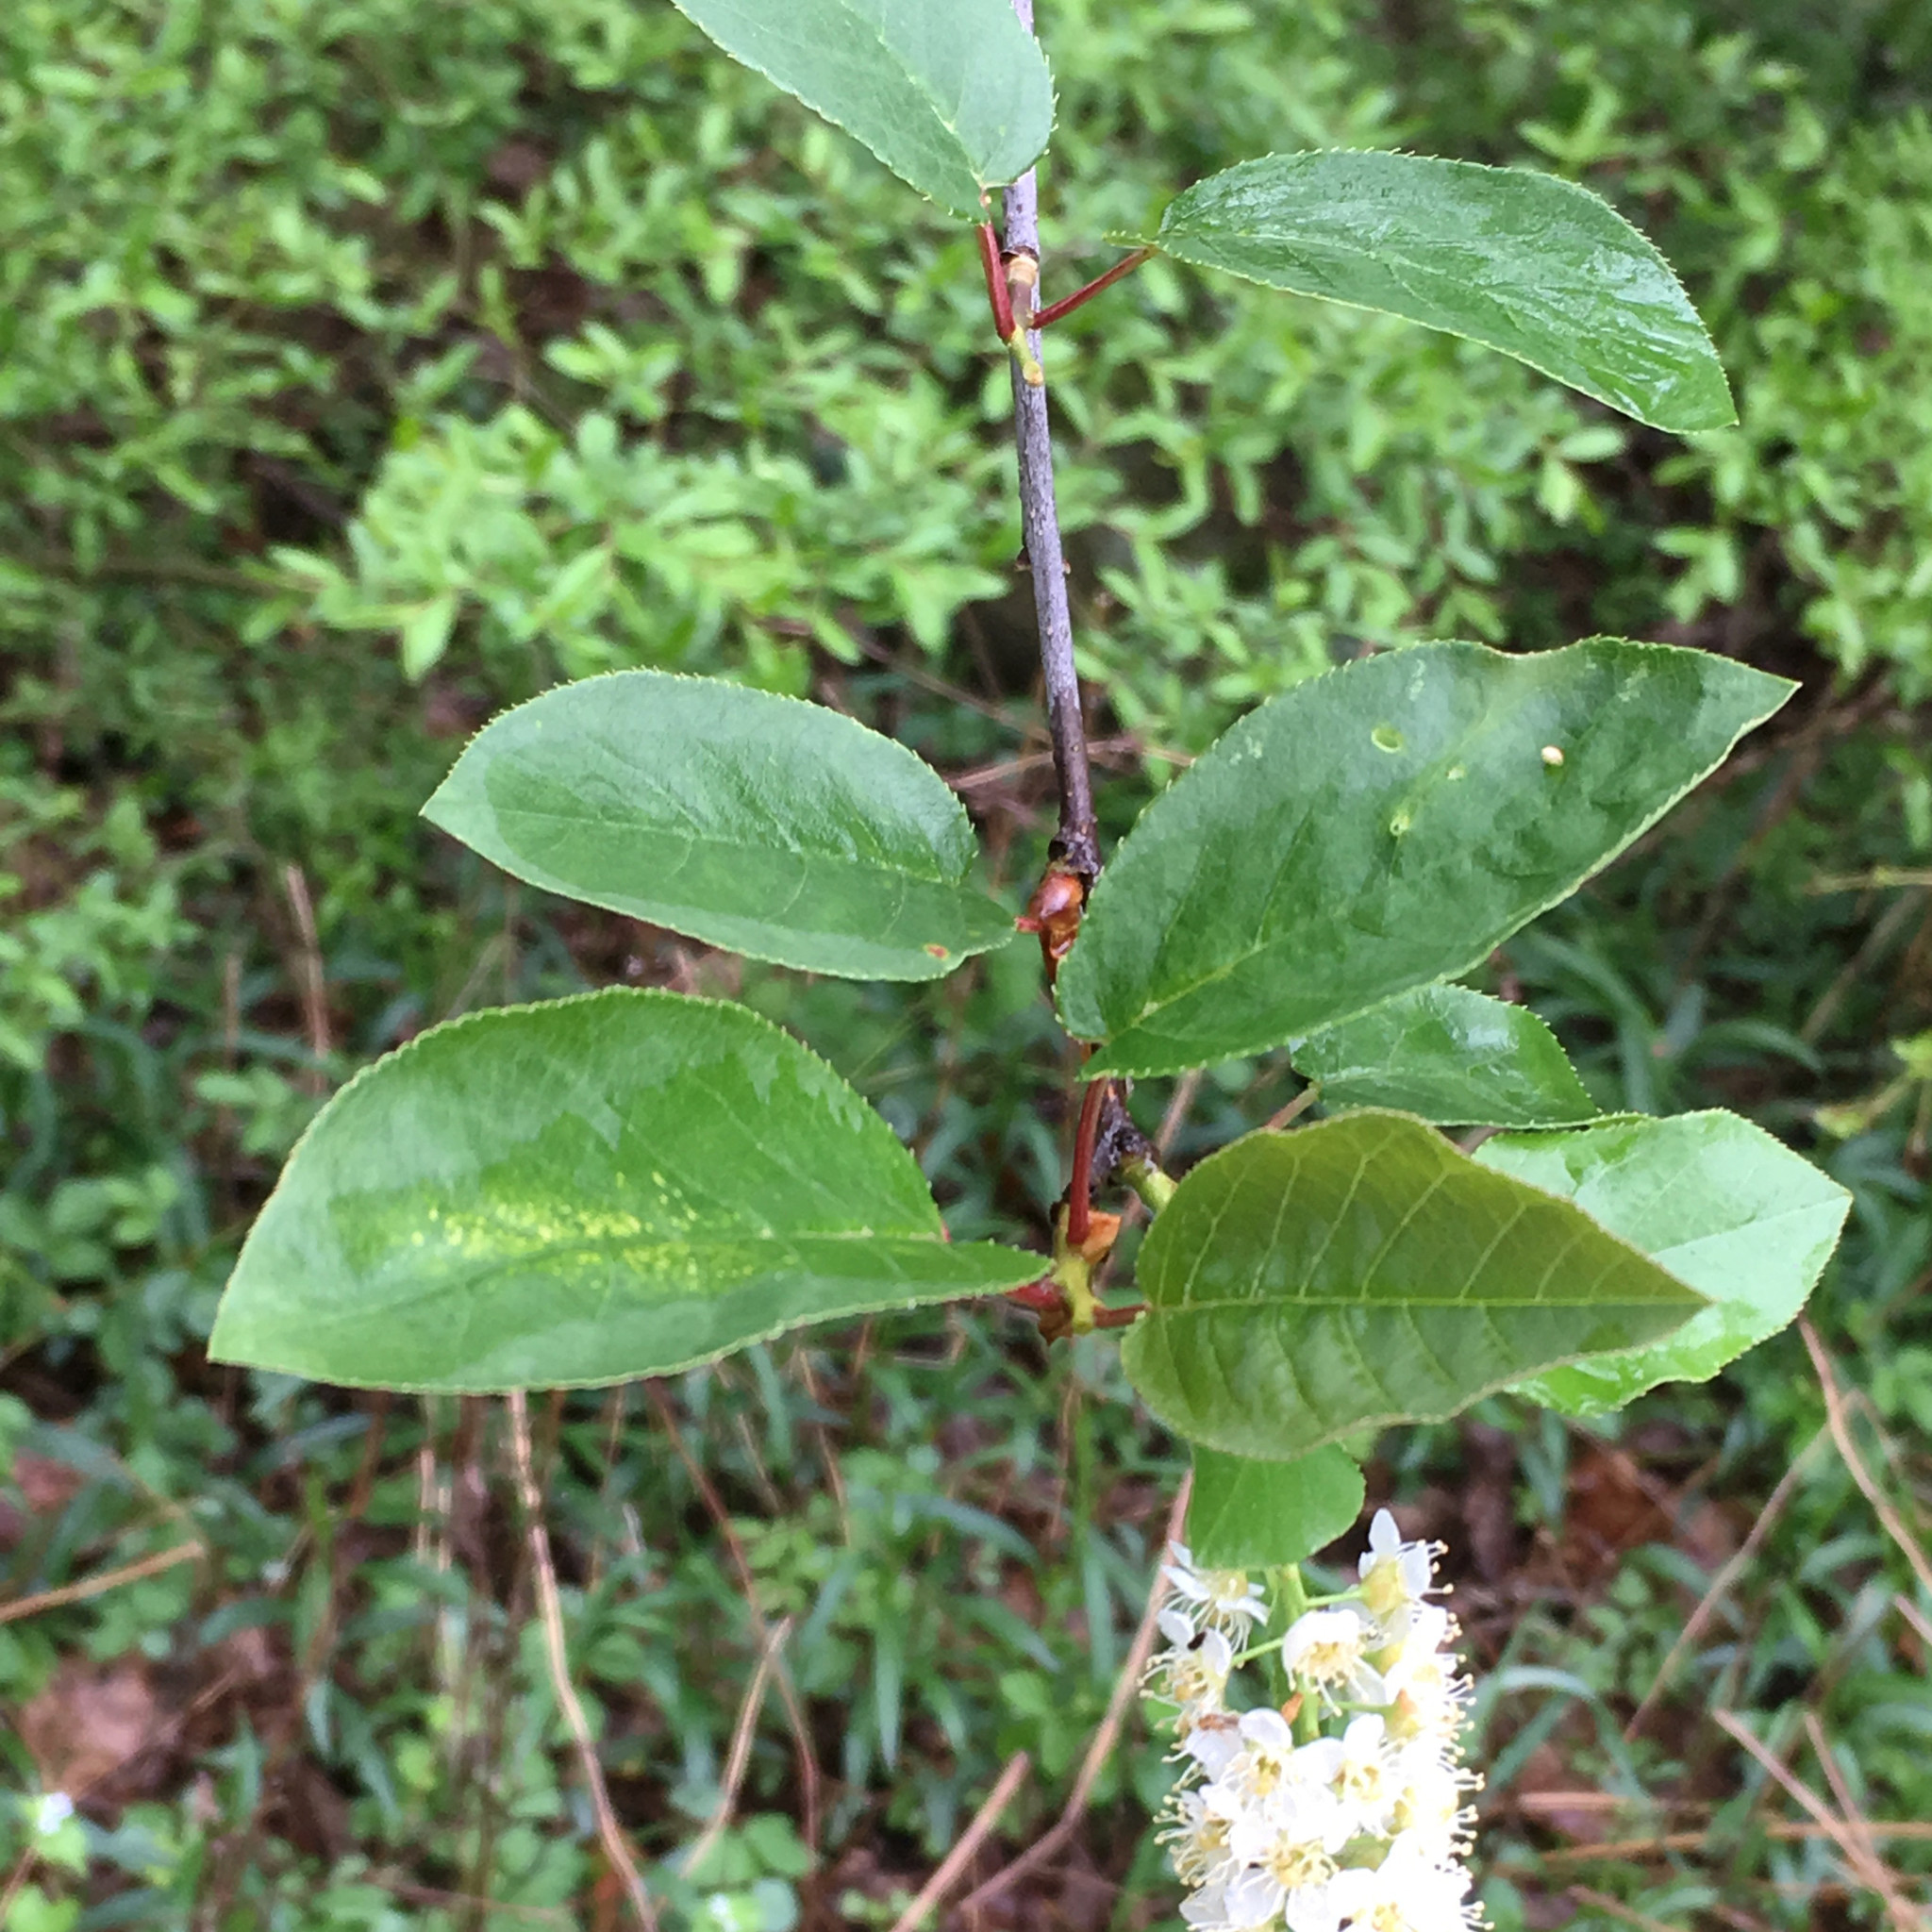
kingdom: Plantae
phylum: Tracheophyta
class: Magnoliopsida
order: Rosales
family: Rosaceae
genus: Prunus
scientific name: Prunus virginiana
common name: Chokecherry
